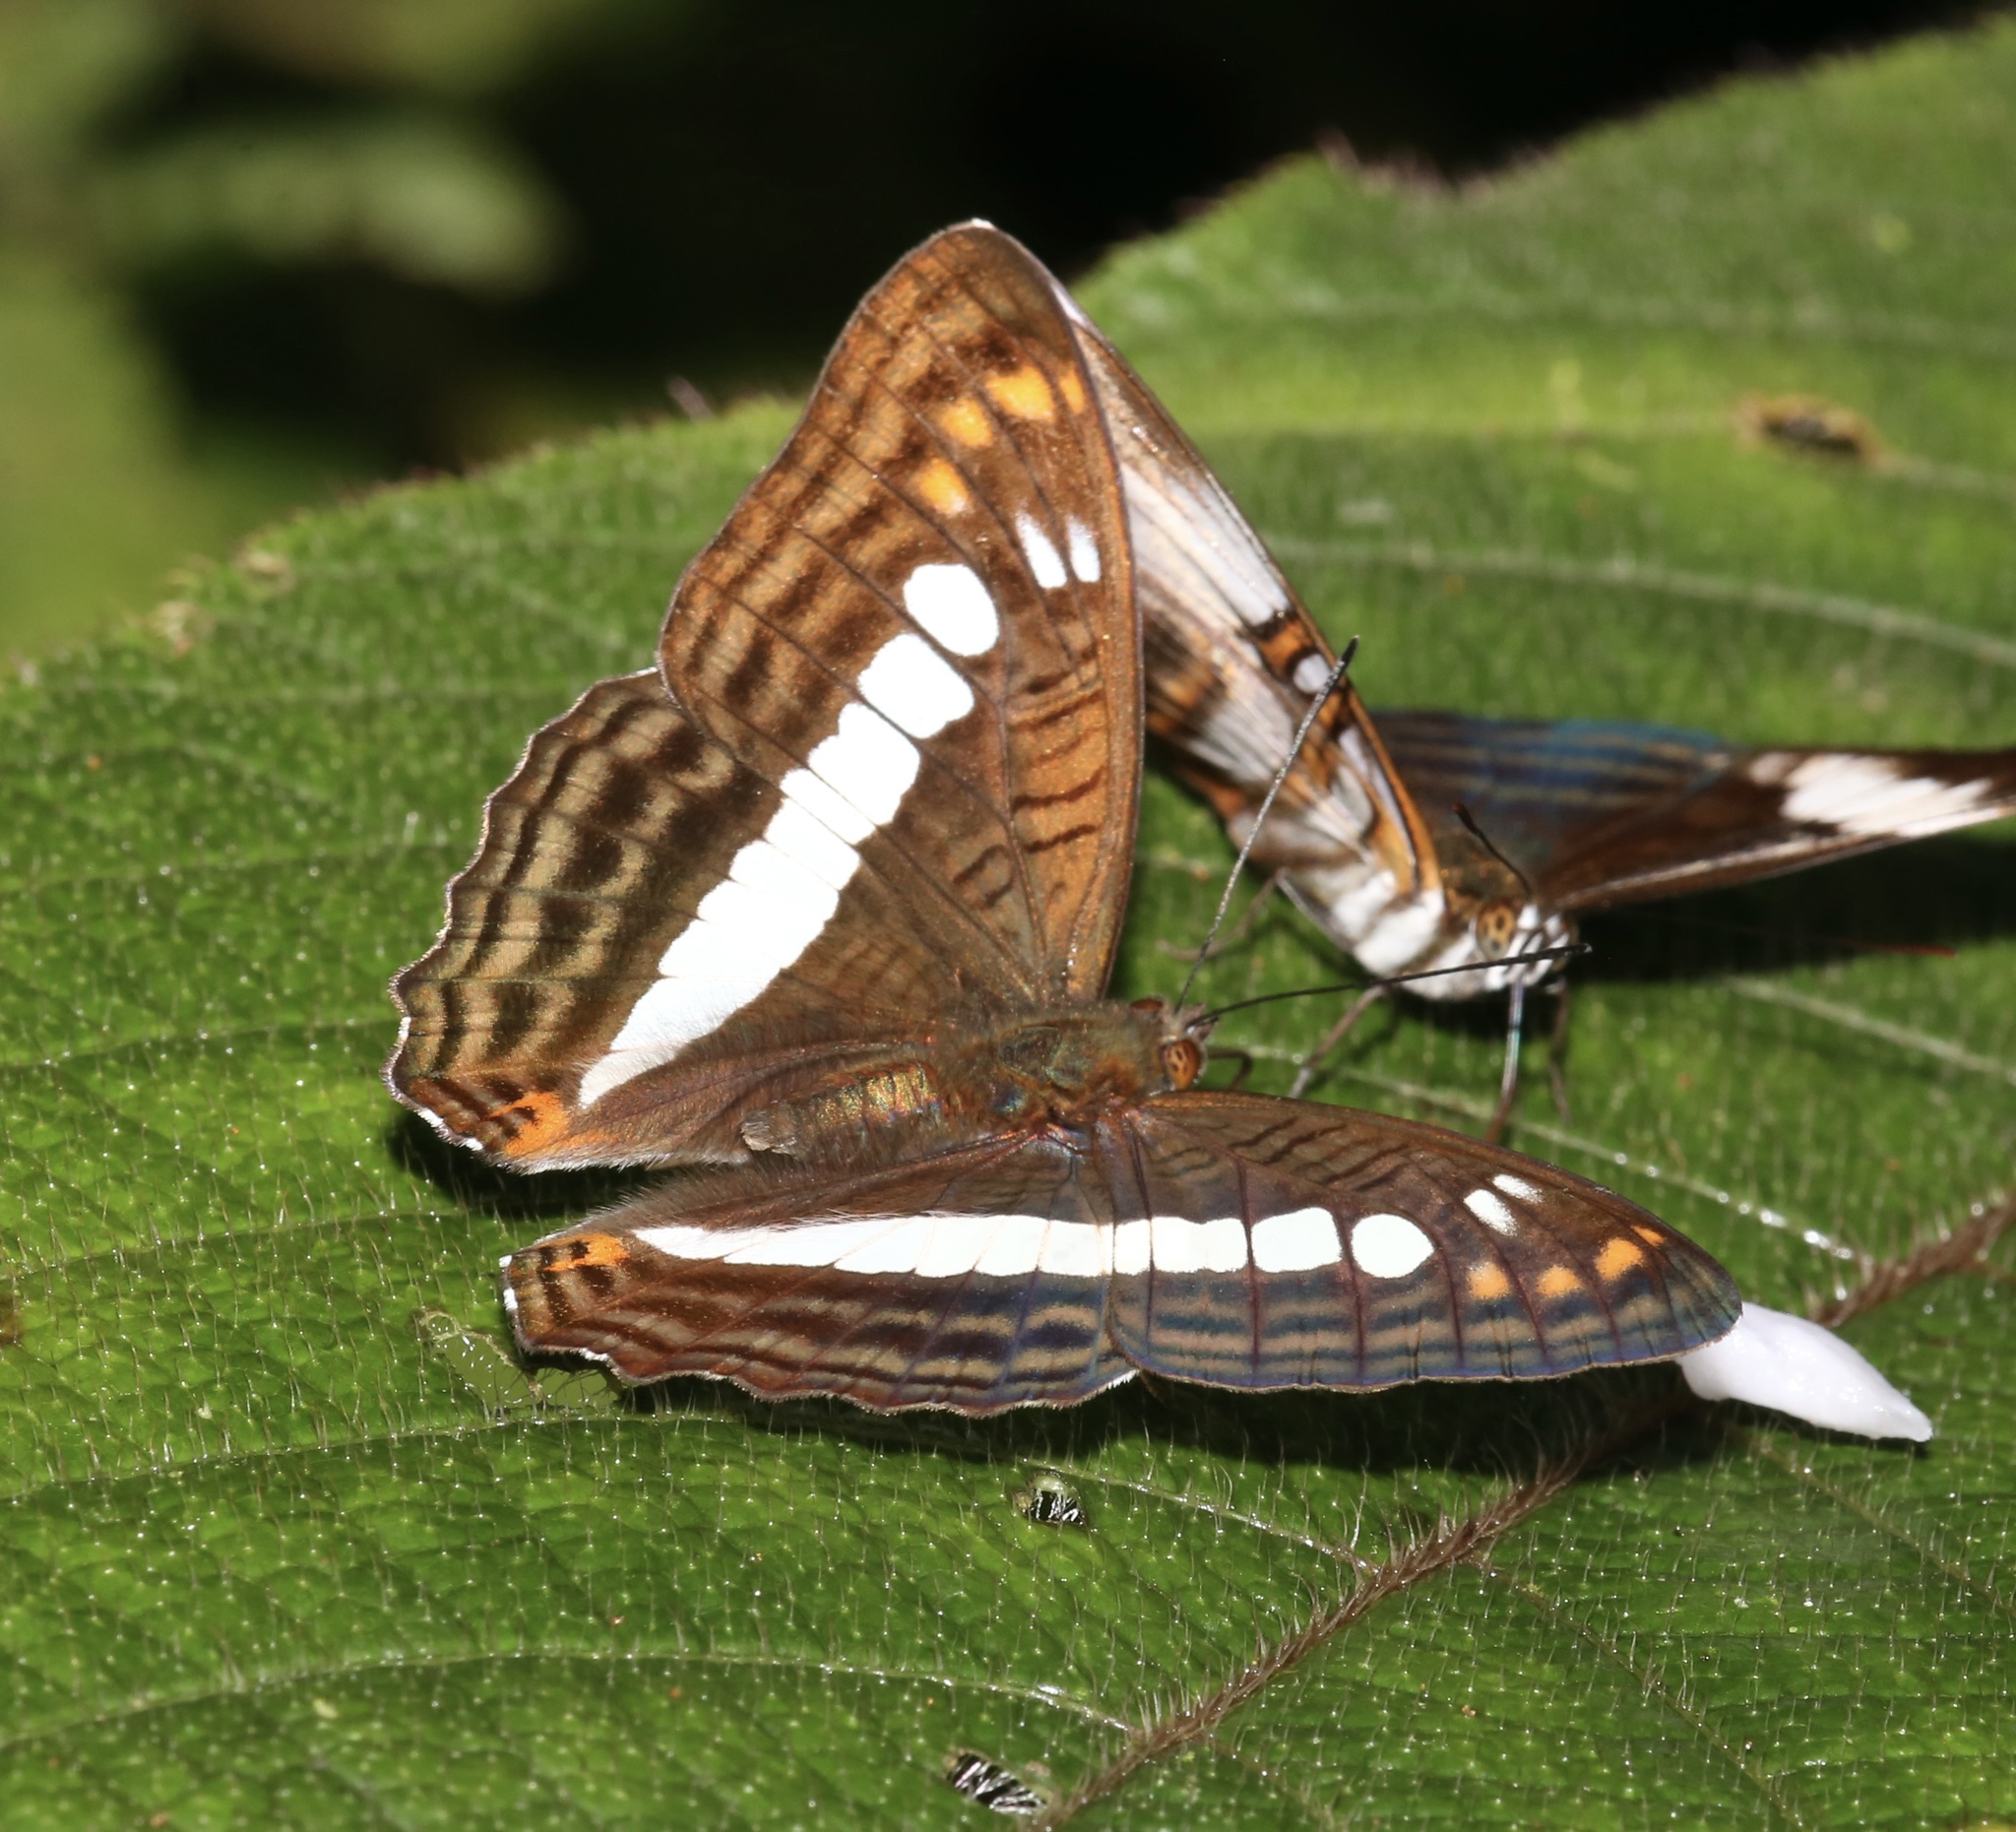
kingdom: Animalia
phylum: Arthropoda
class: Insecta
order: Lepidoptera
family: Nymphalidae
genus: Limenitis
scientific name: Limenitis alala
